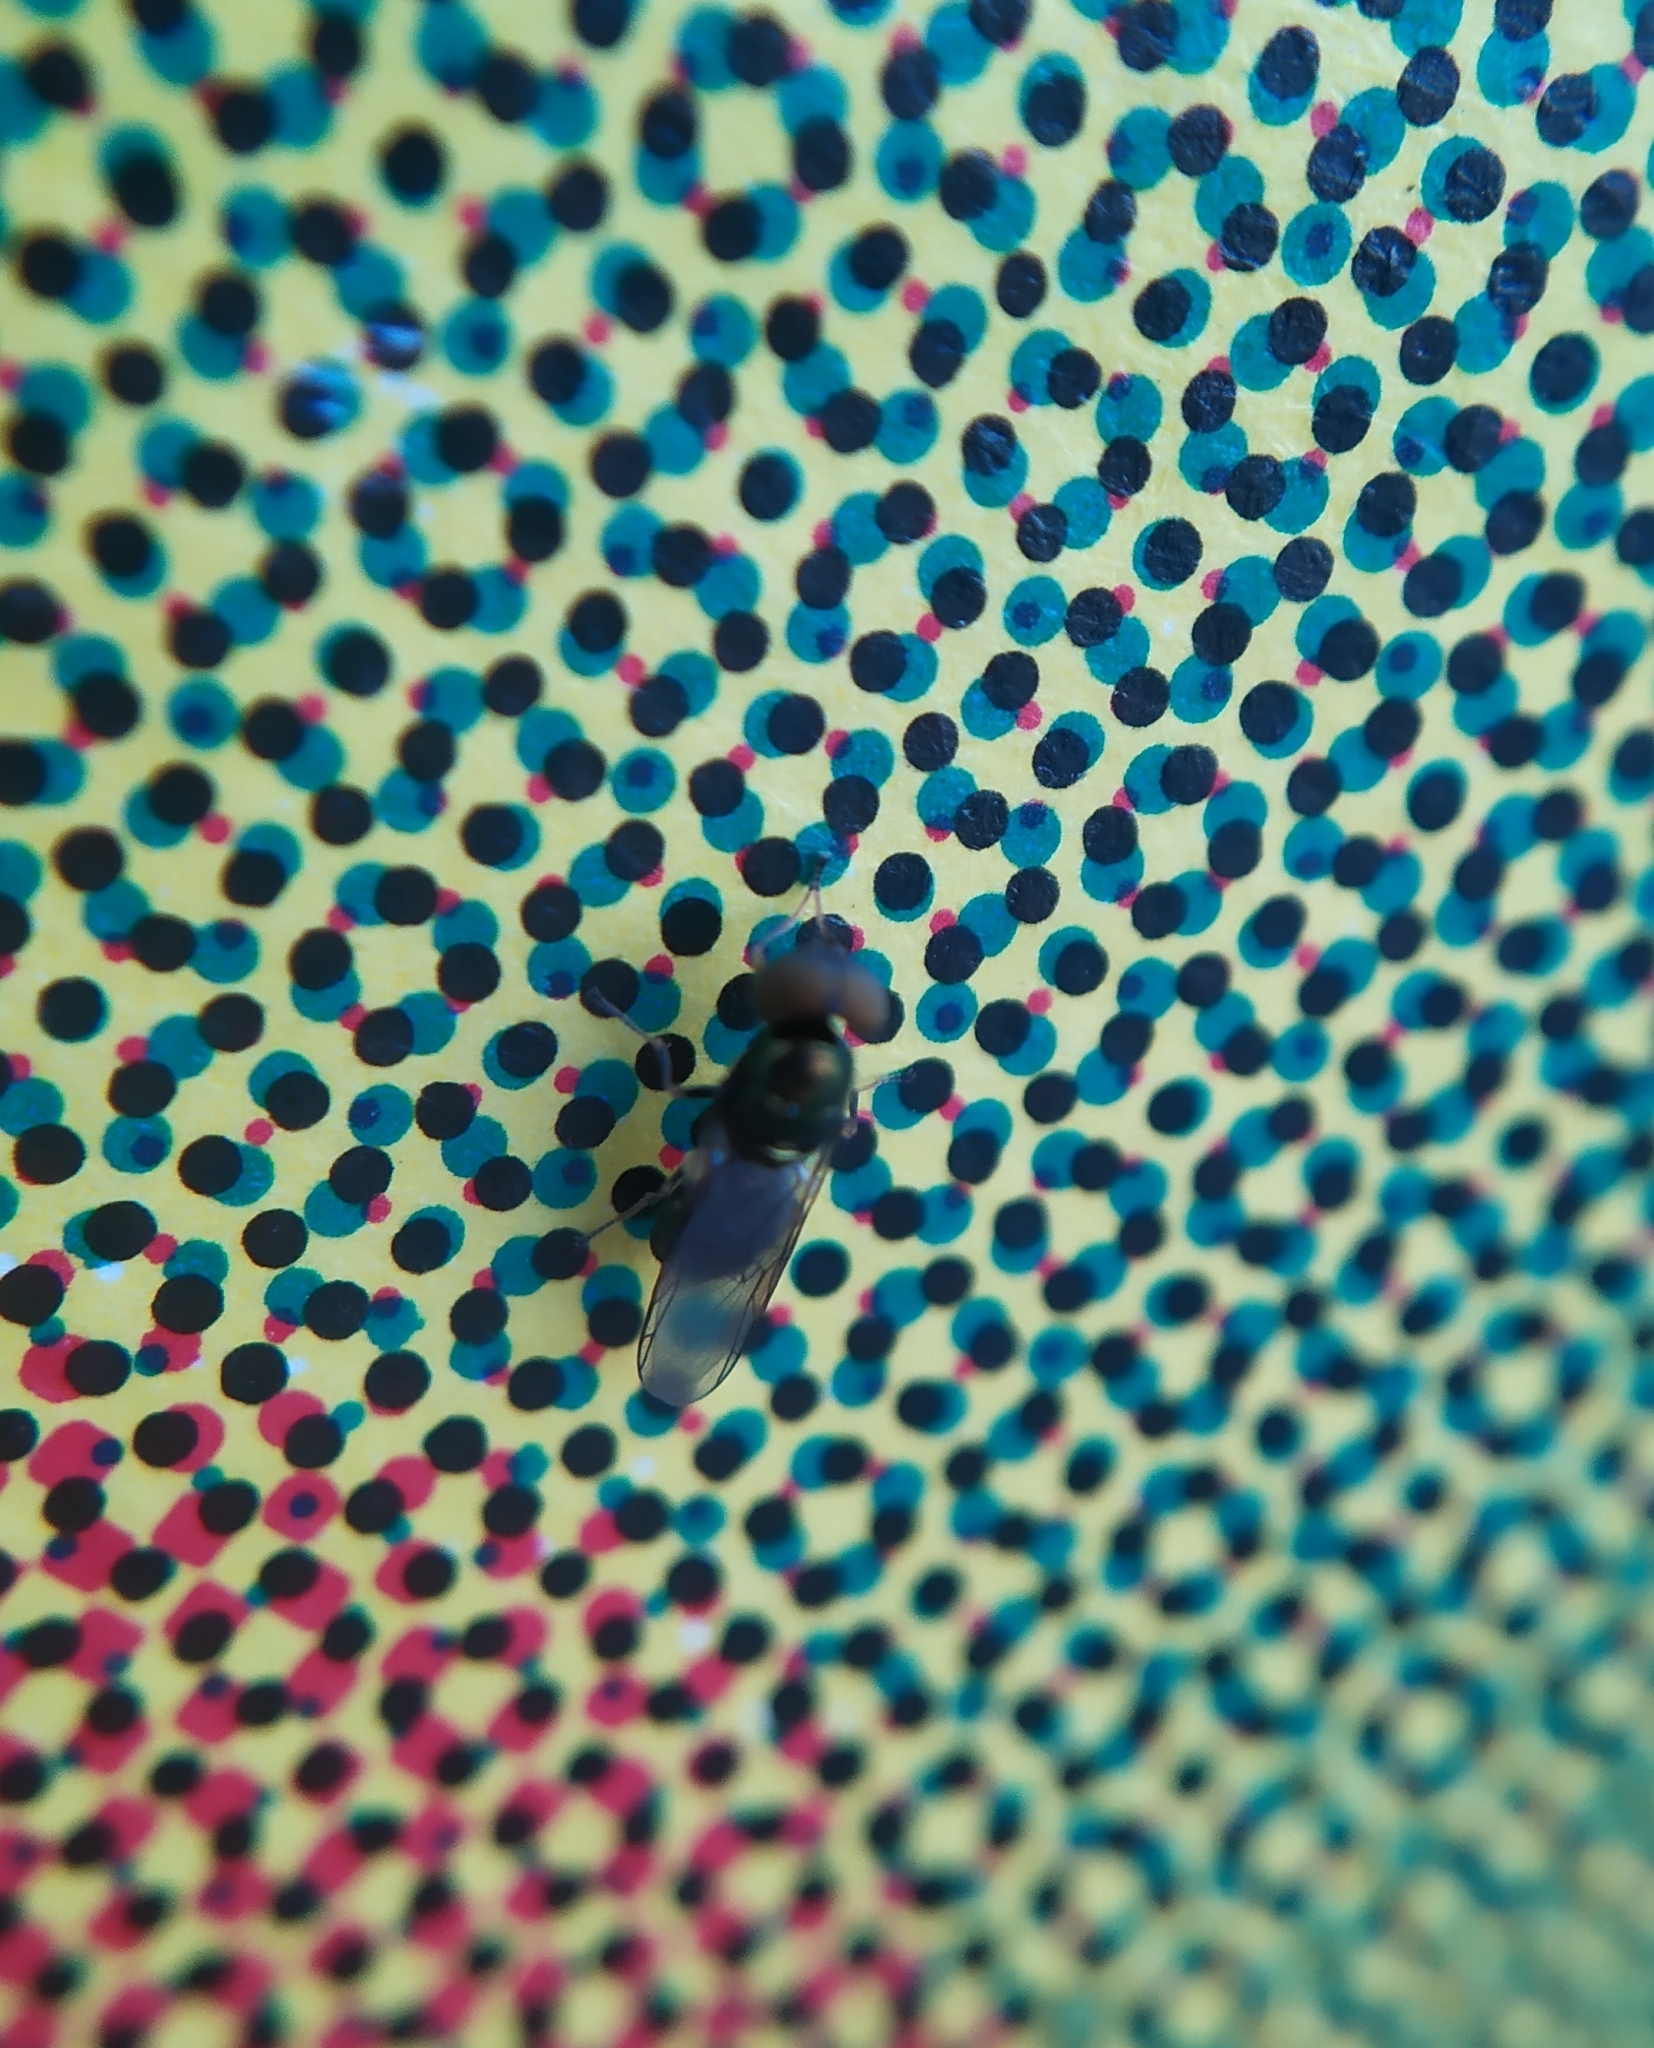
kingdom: Animalia
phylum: Arthropoda
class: Insecta
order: Diptera
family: Stratiomyidae
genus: Microchrysa
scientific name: Microchrysa polita
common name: Black-horned gem
